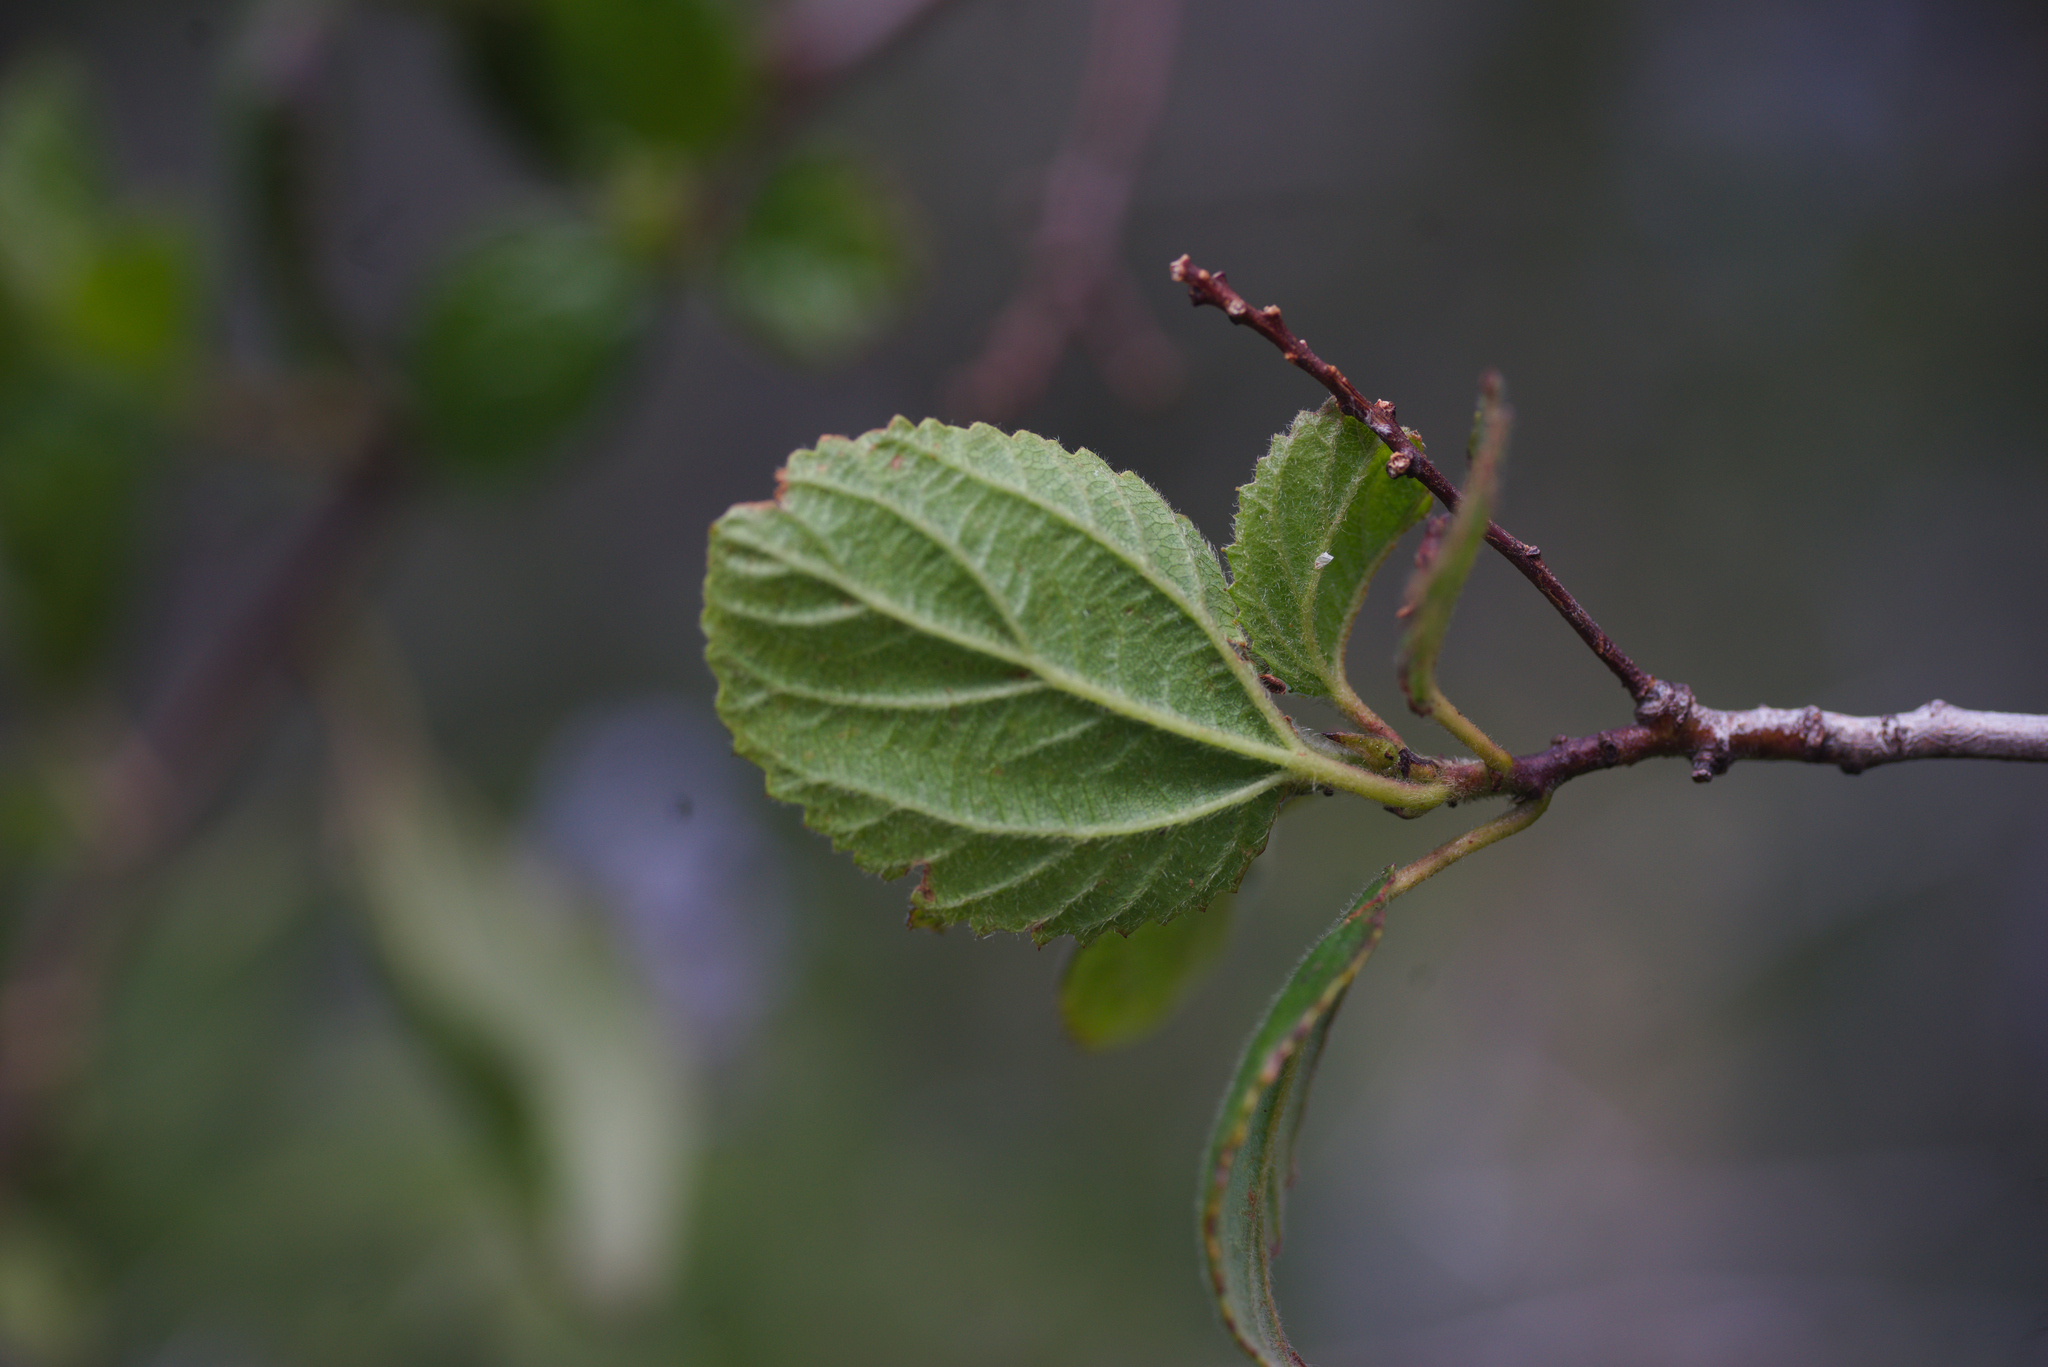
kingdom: Plantae
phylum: Tracheophyta
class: Magnoliopsida
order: Rosales
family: Rhamnaceae
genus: Ceanothus
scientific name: Ceanothus oliganthus
